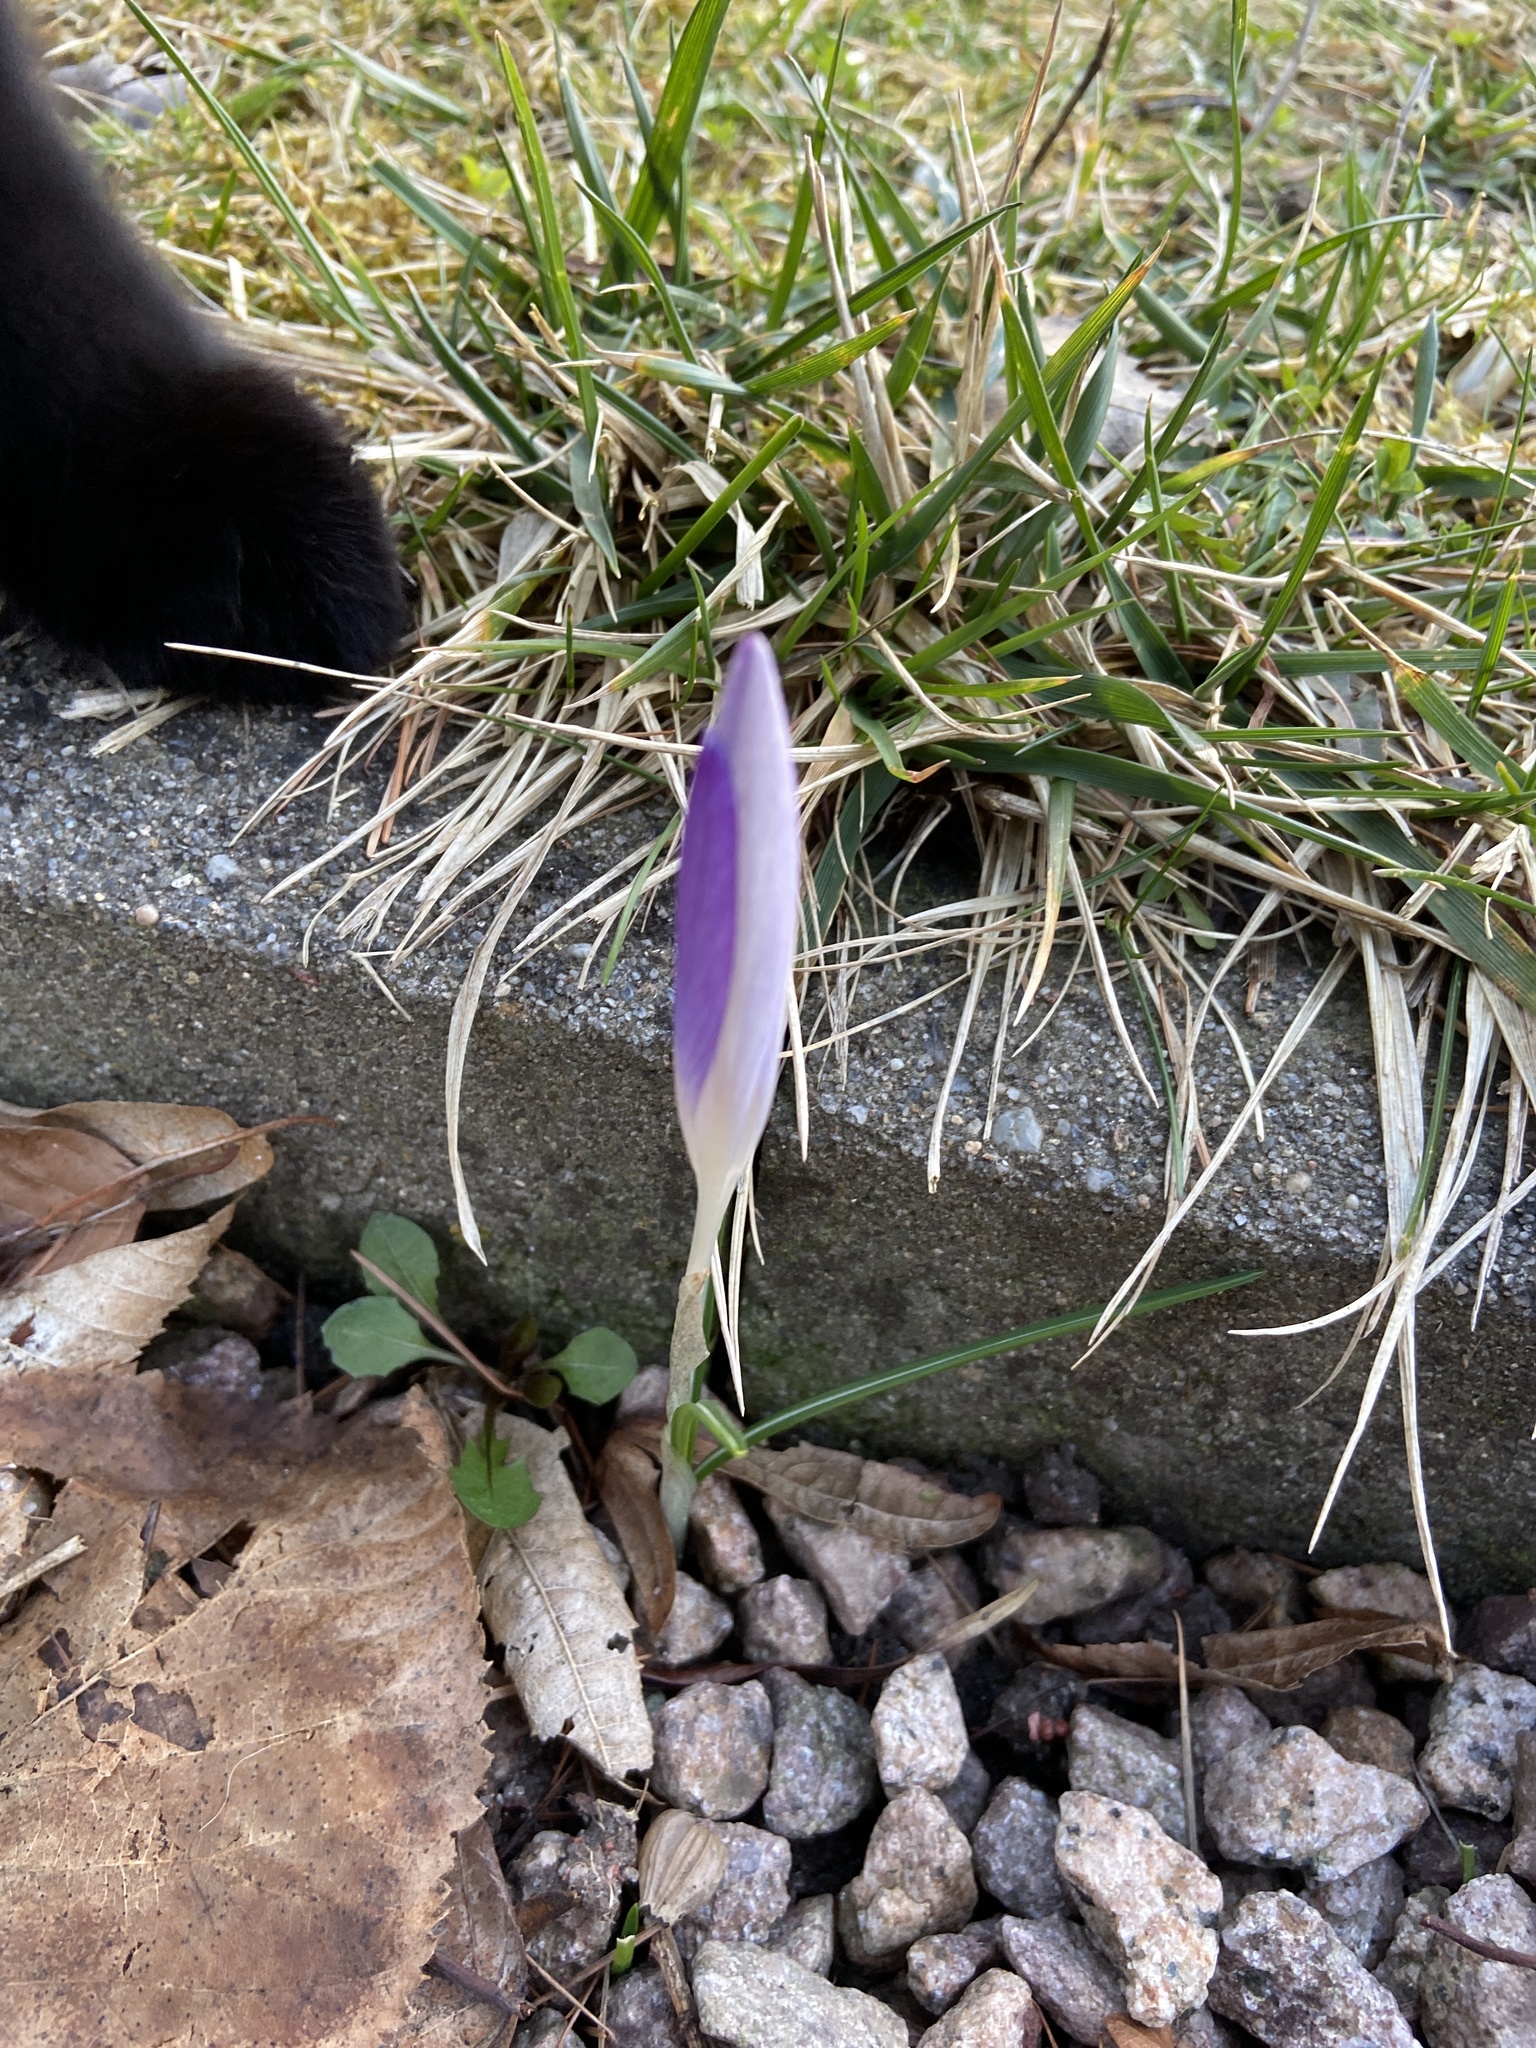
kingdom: Plantae
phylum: Tracheophyta
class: Liliopsida
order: Asparagales
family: Iridaceae
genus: Crocus
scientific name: Crocus tommasinianus
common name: Early crocus
